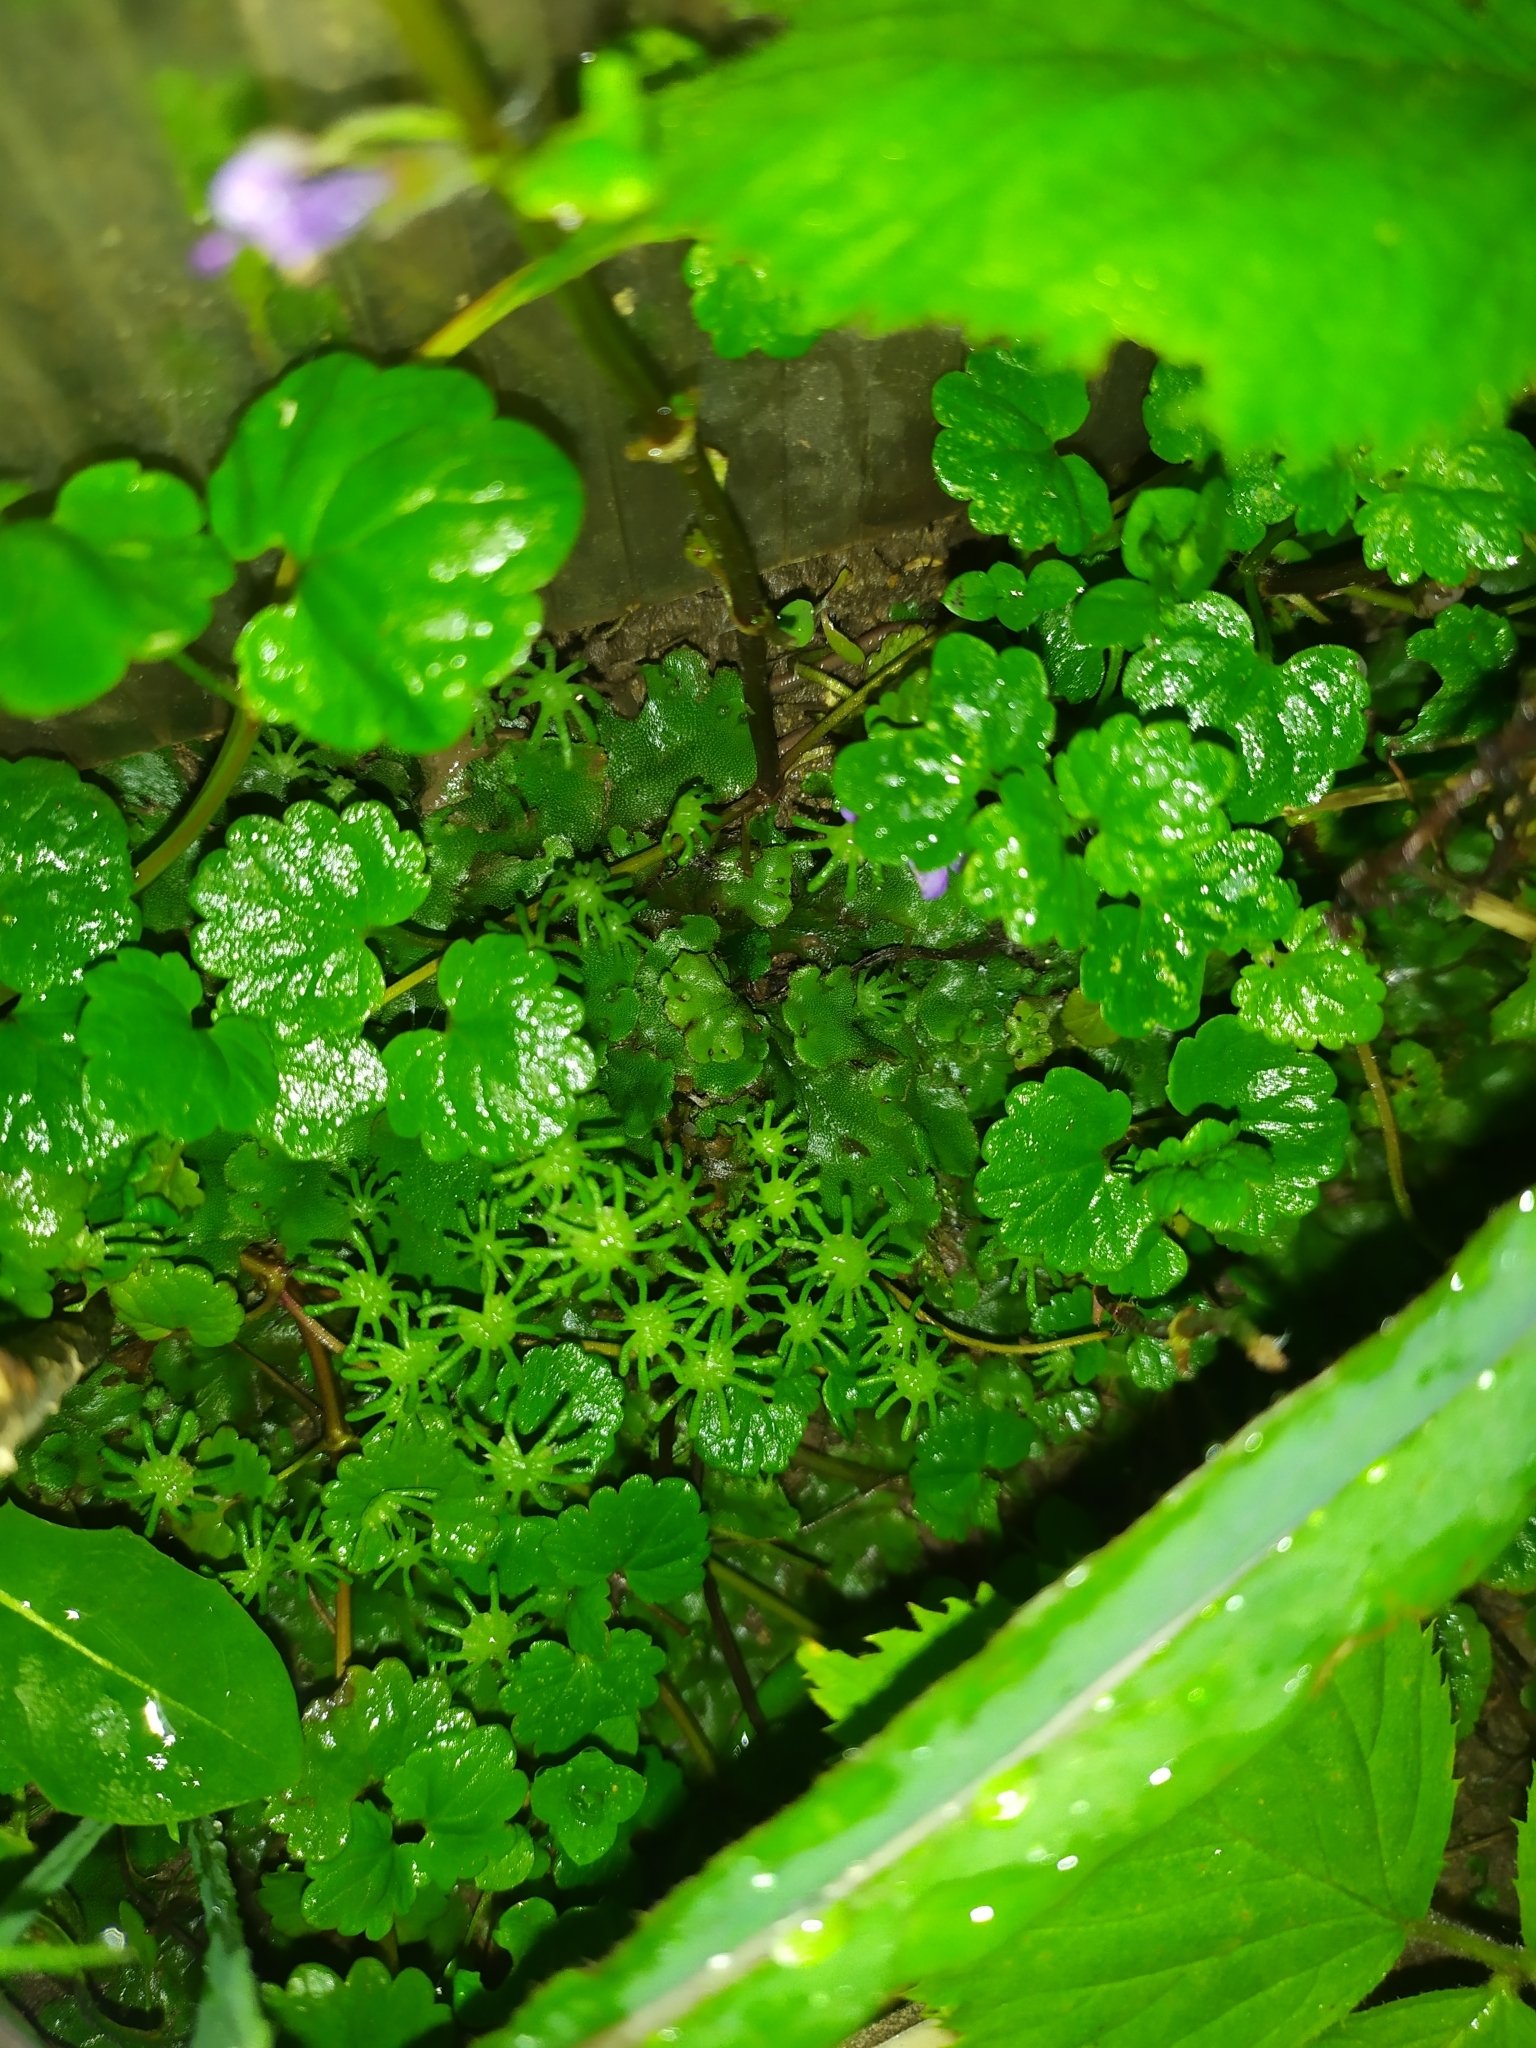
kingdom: Plantae
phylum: Marchantiophyta
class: Marchantiopsida
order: Marchantiales
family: Marchantiaceae
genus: Marchantia
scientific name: Marchantia polymorpha
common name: Common liverwort
